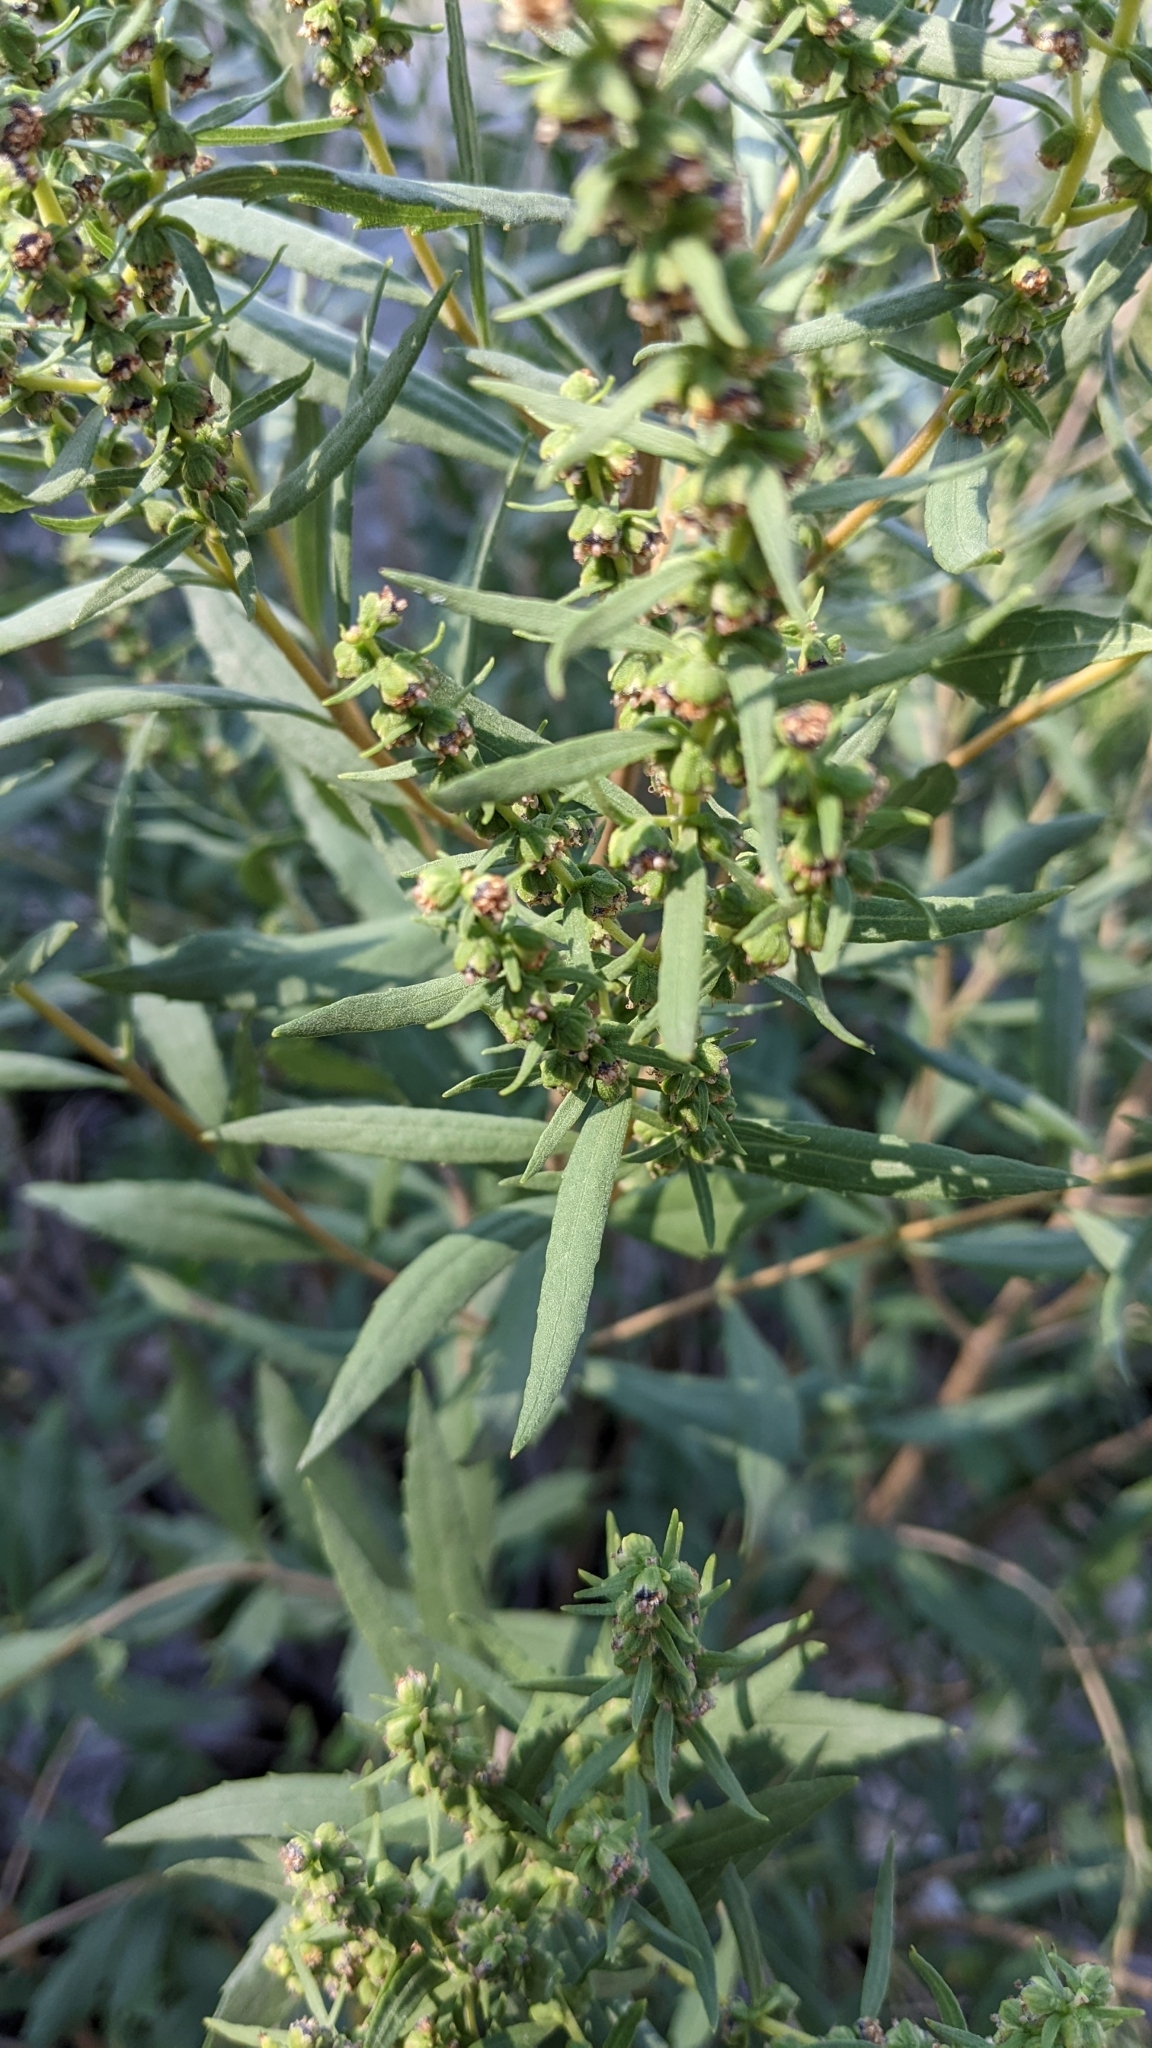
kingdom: Plantae
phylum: Tracheophyta
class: Magnoliopsida
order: Asterales
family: Asteraceae
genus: Iva
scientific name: Iva frutescens
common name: Big-leaved marsh-elder
